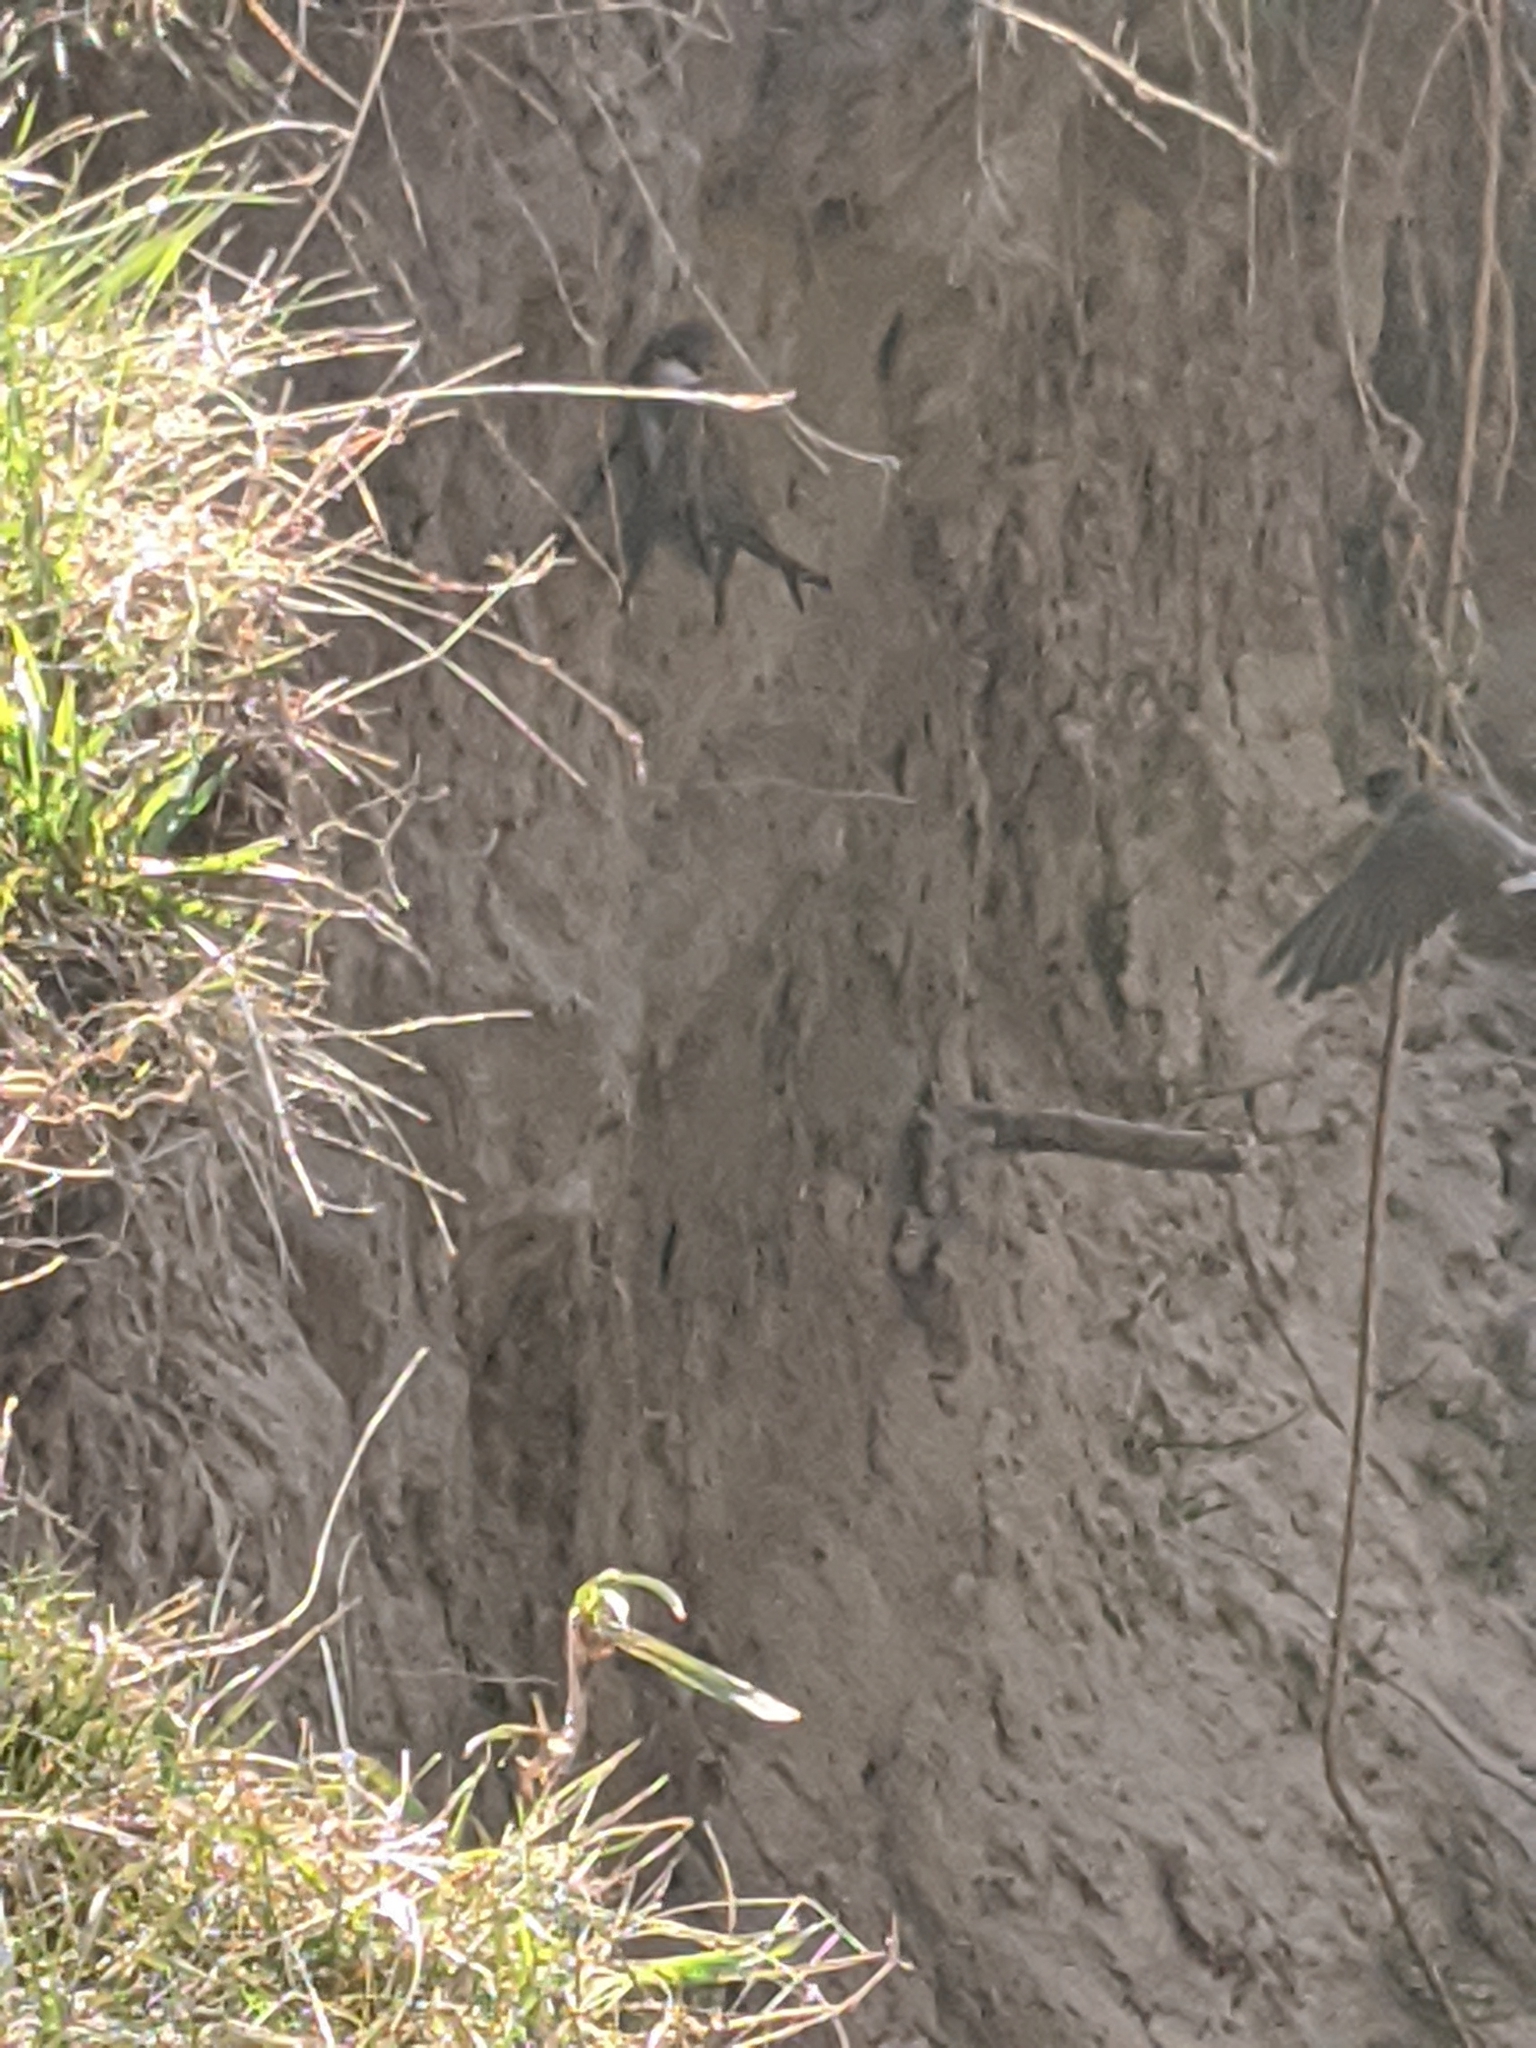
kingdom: Animalia
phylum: Chordata
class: Aves
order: Passeriformes
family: Hirundinidae
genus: Riparia
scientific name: Riparia riparia
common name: Sand martin
